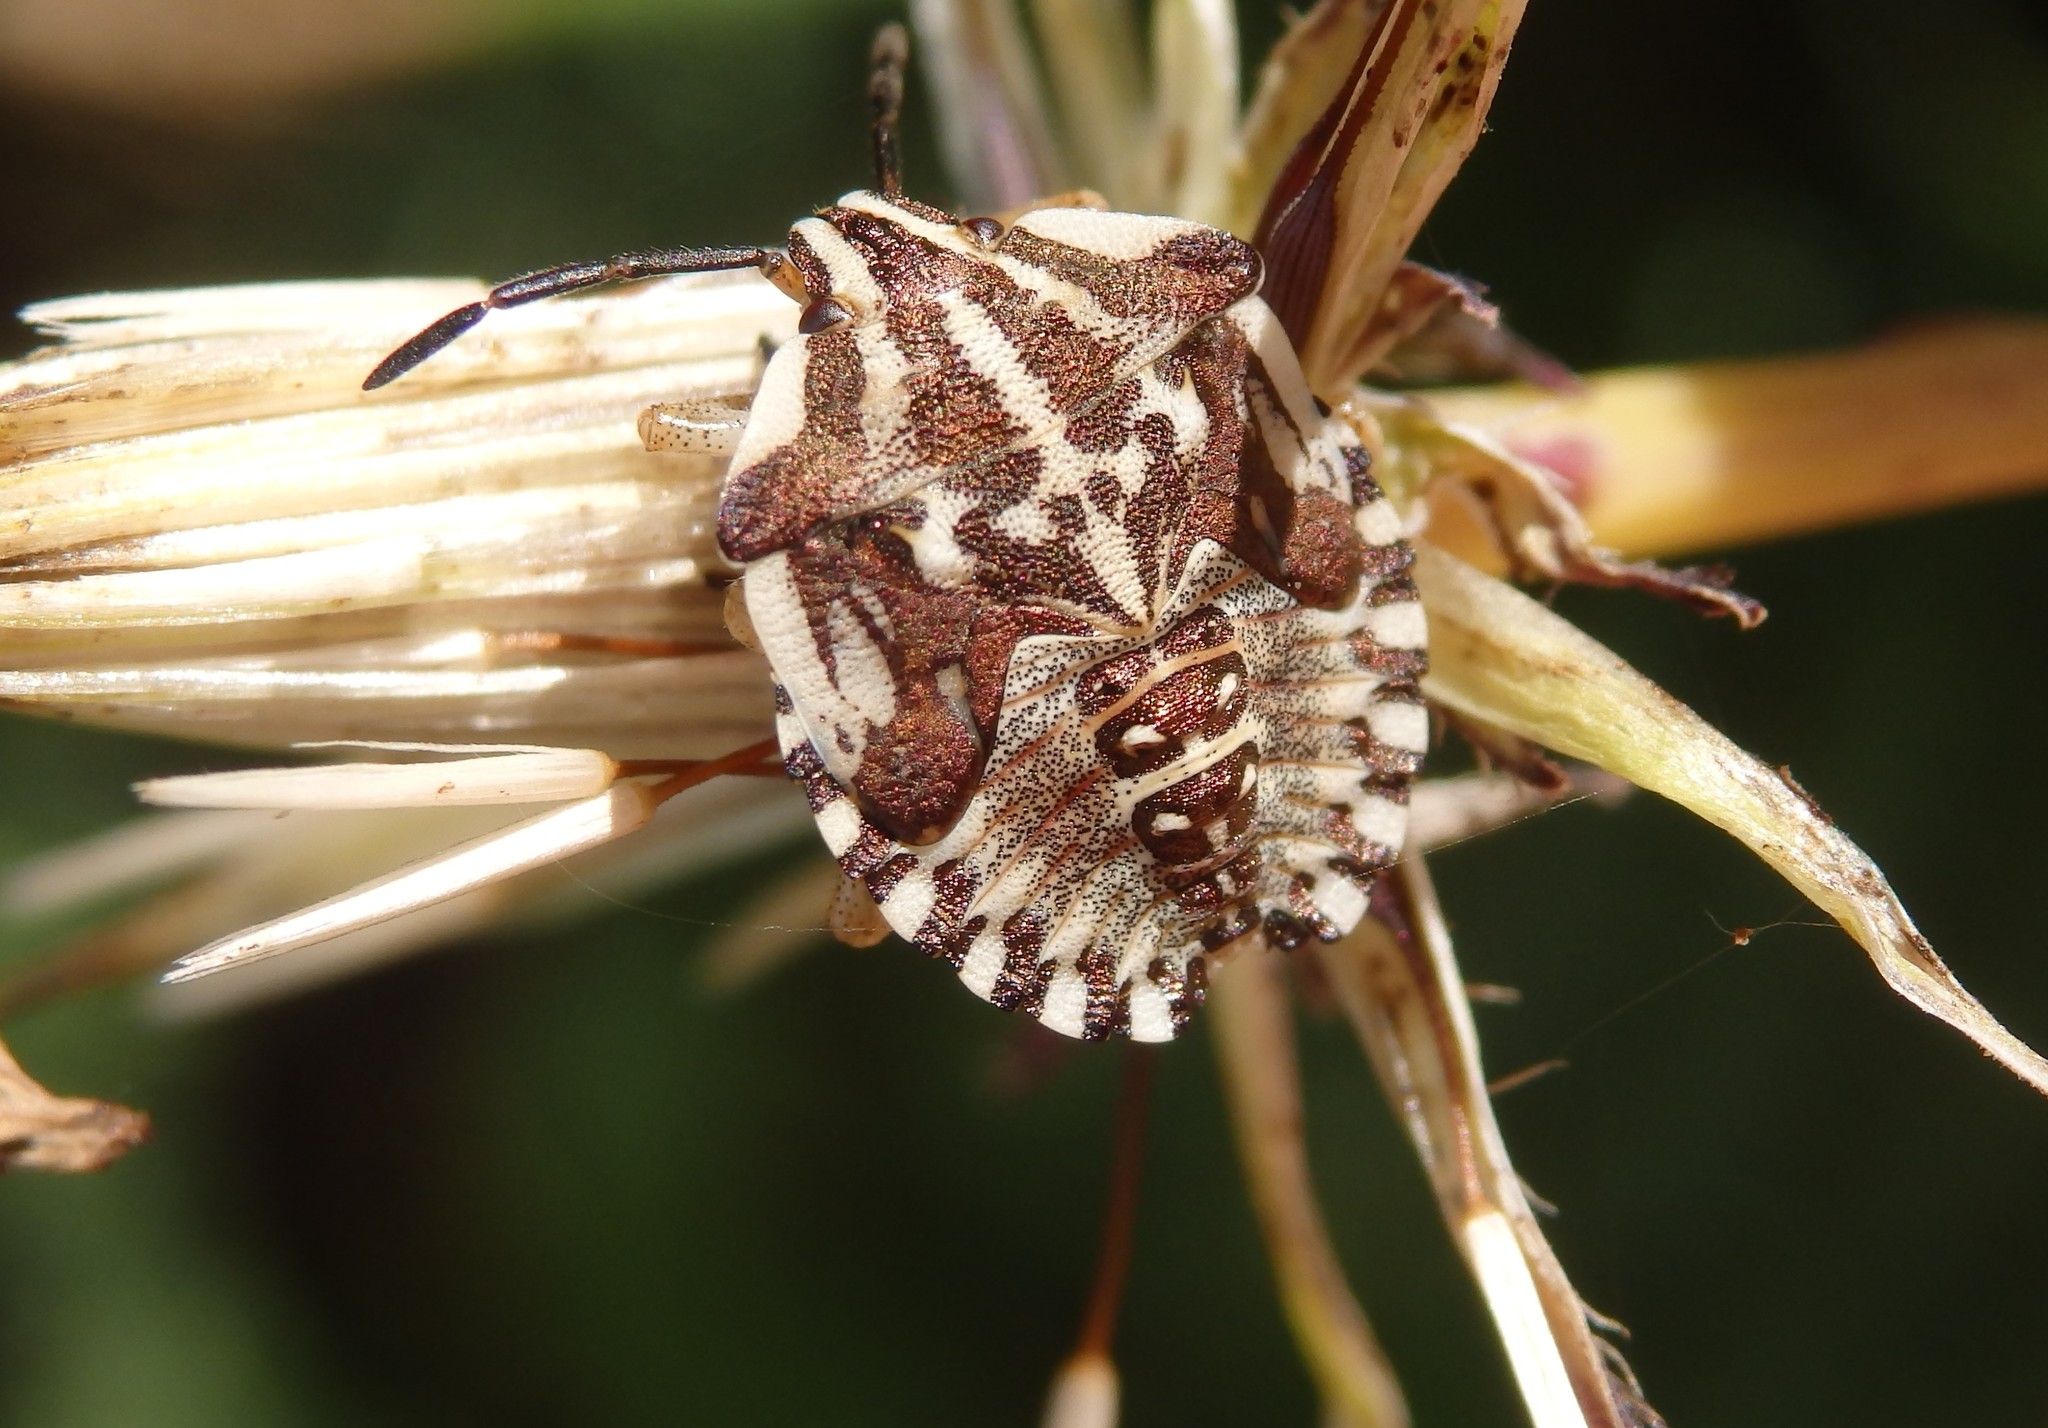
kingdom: Animalia
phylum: Arthropoda
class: Insecta
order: Hemiptera
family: Pentatomidae
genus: Carpocoris
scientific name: Carpocoris mediterraneus
